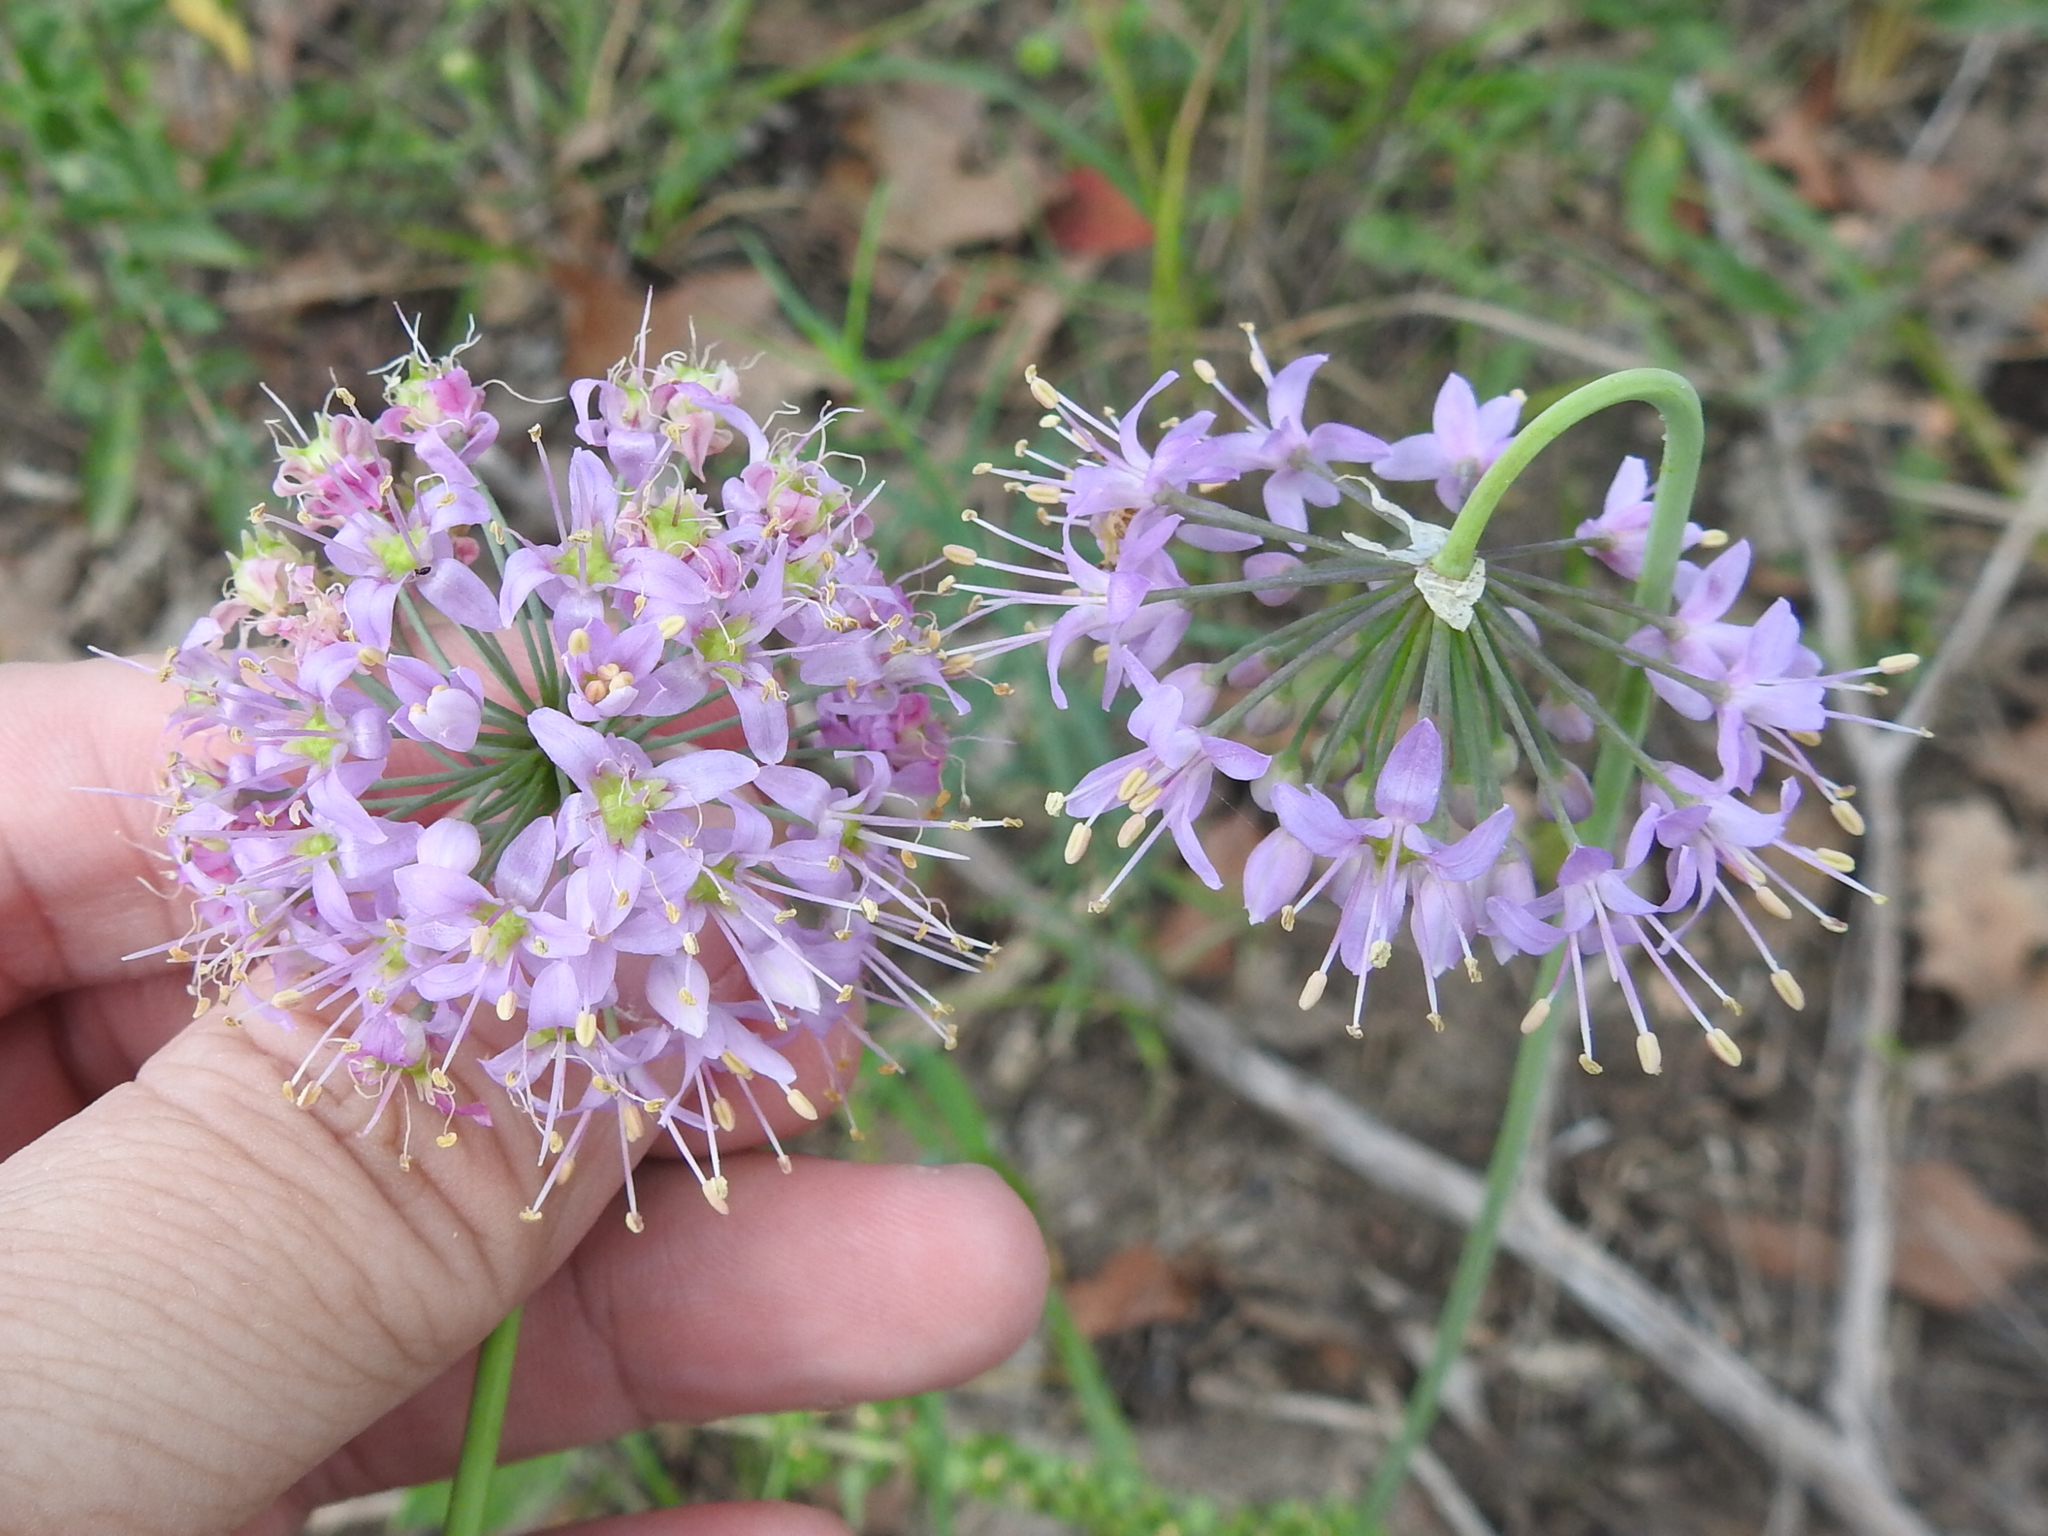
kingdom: Plantae
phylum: Tracheophyta
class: Liliopsida
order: Asparagales
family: Amaryllidaceae
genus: Allium
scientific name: Allium stellatum
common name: Autumn onion
